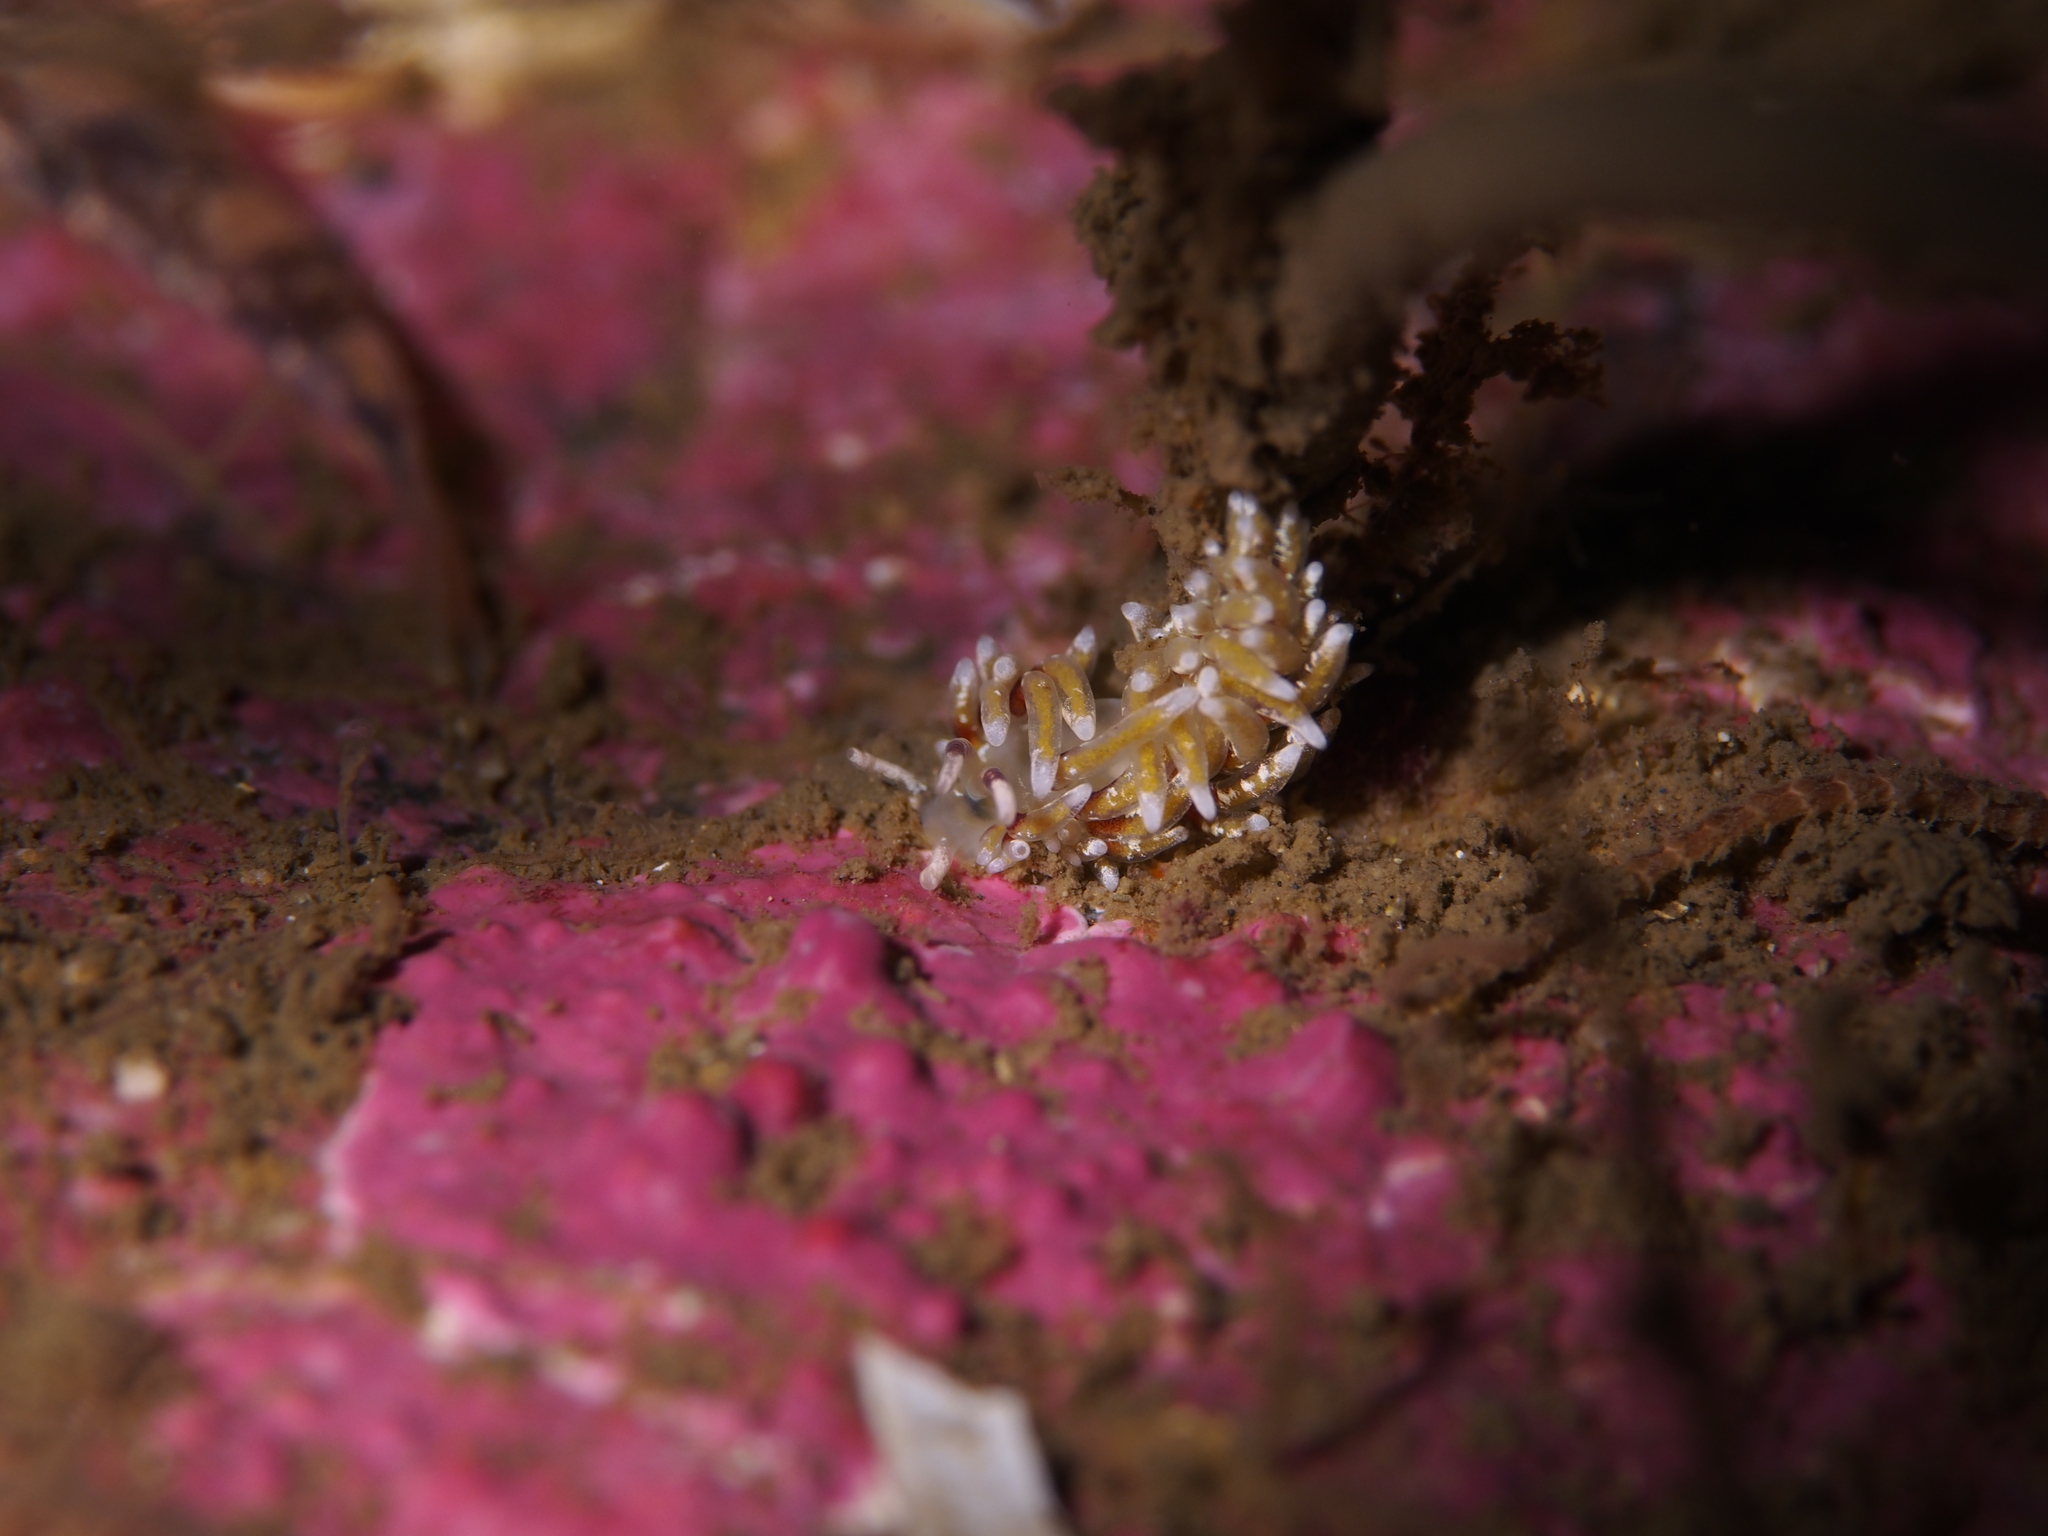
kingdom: Animalia
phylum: Mollusca
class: Gastropoda
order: Nudibranchia
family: Trinchesiidae
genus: Rubramoena
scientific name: Rubramoena rubescens
